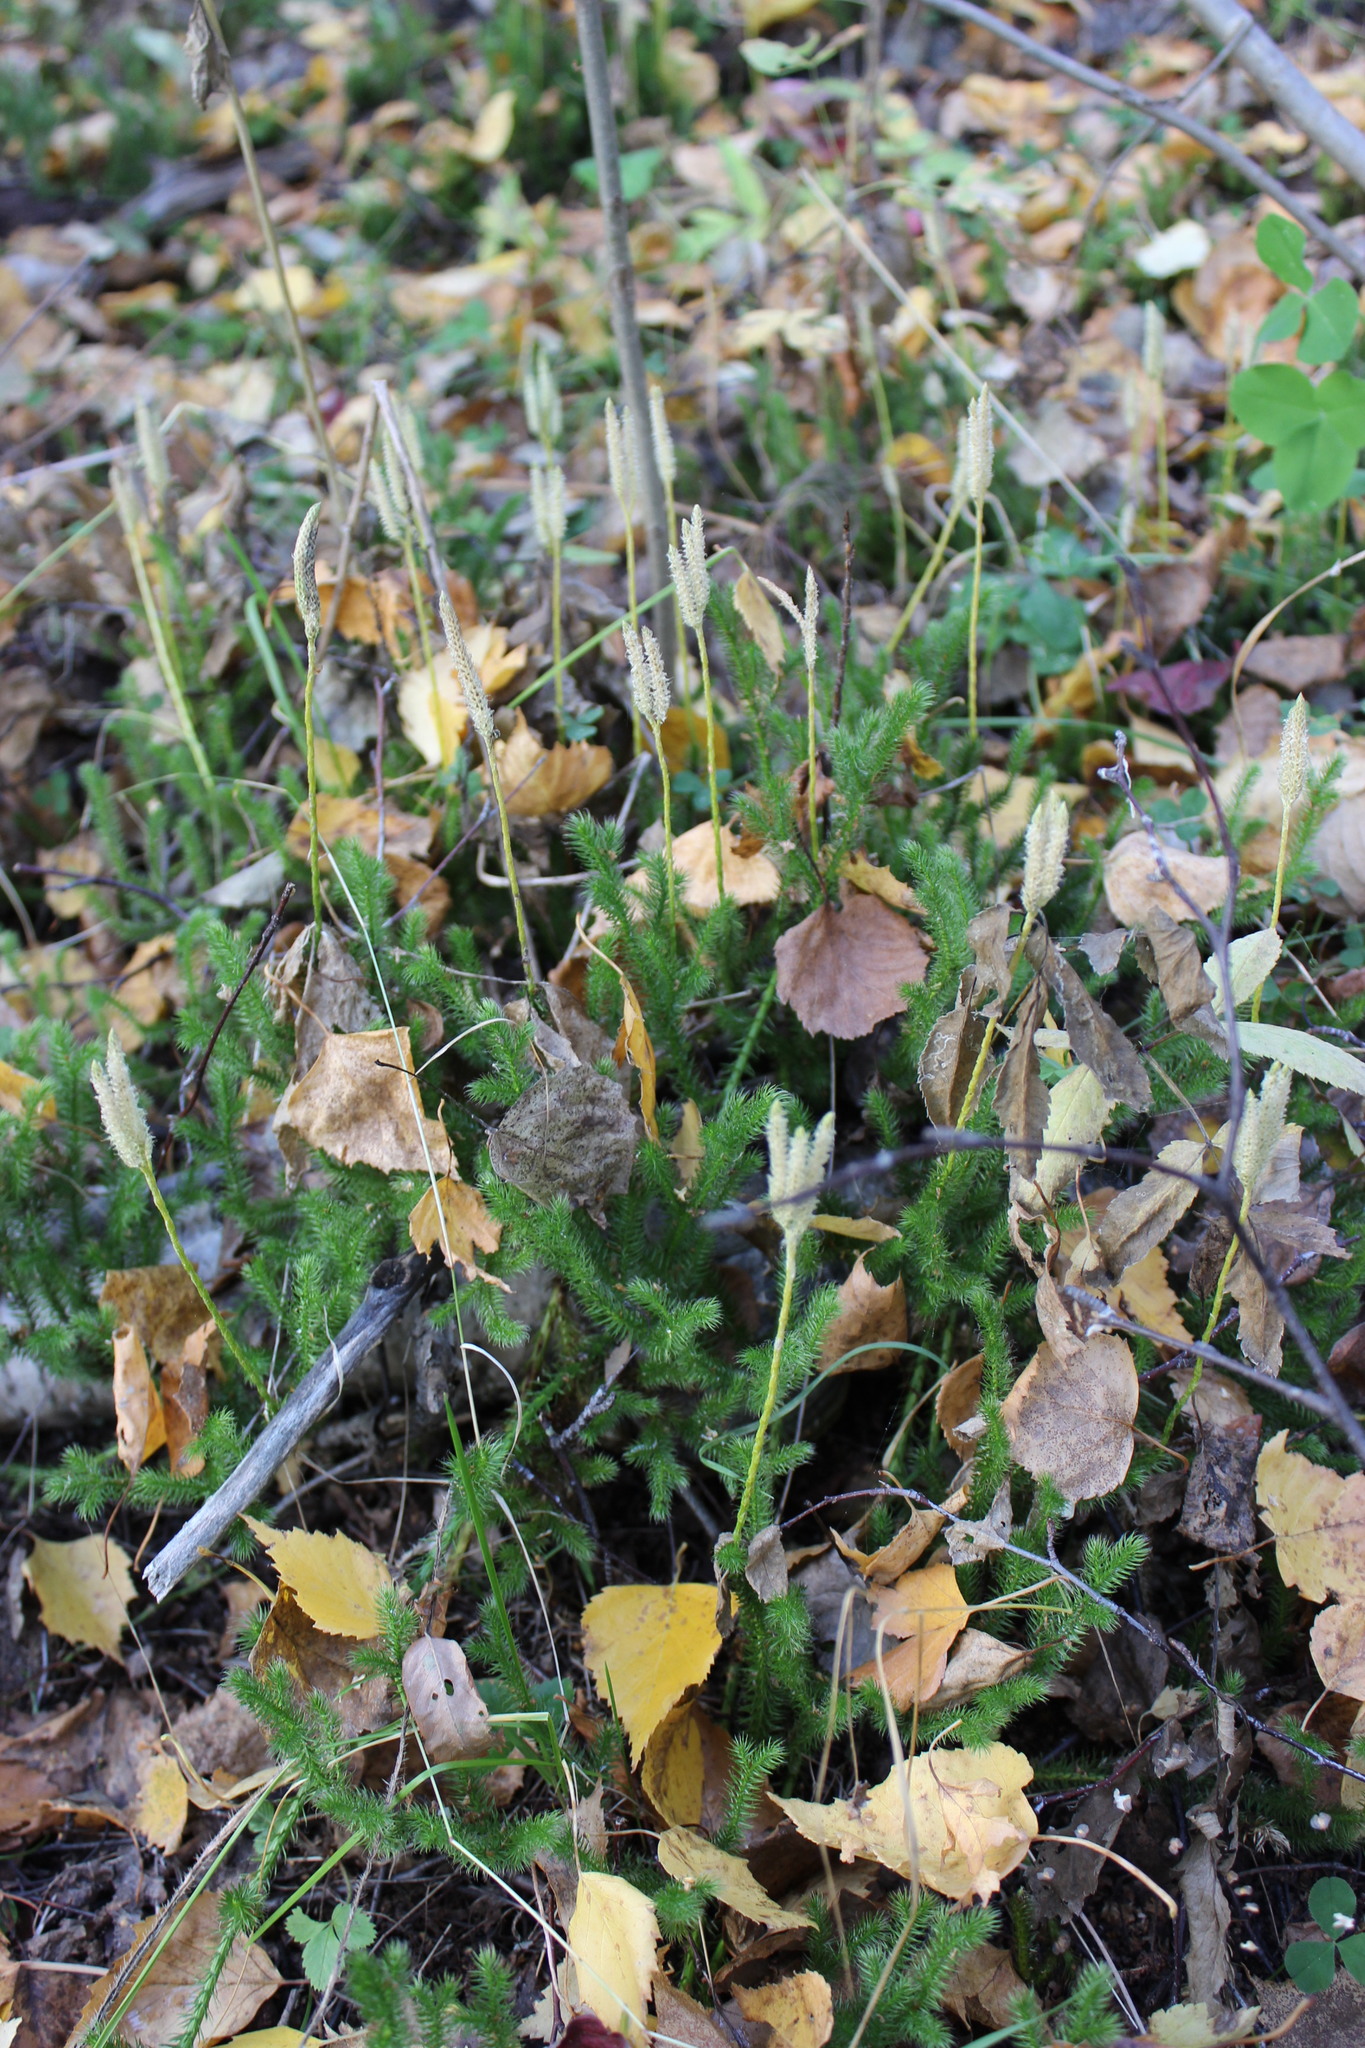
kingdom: Plantae
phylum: Tracheophyta
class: Lycopodiopsida
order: Lycopodiales
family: Lycopodiaceae
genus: Lycopodium
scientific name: Lycopodium clavatum
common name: Stag's-horn clubmoss
